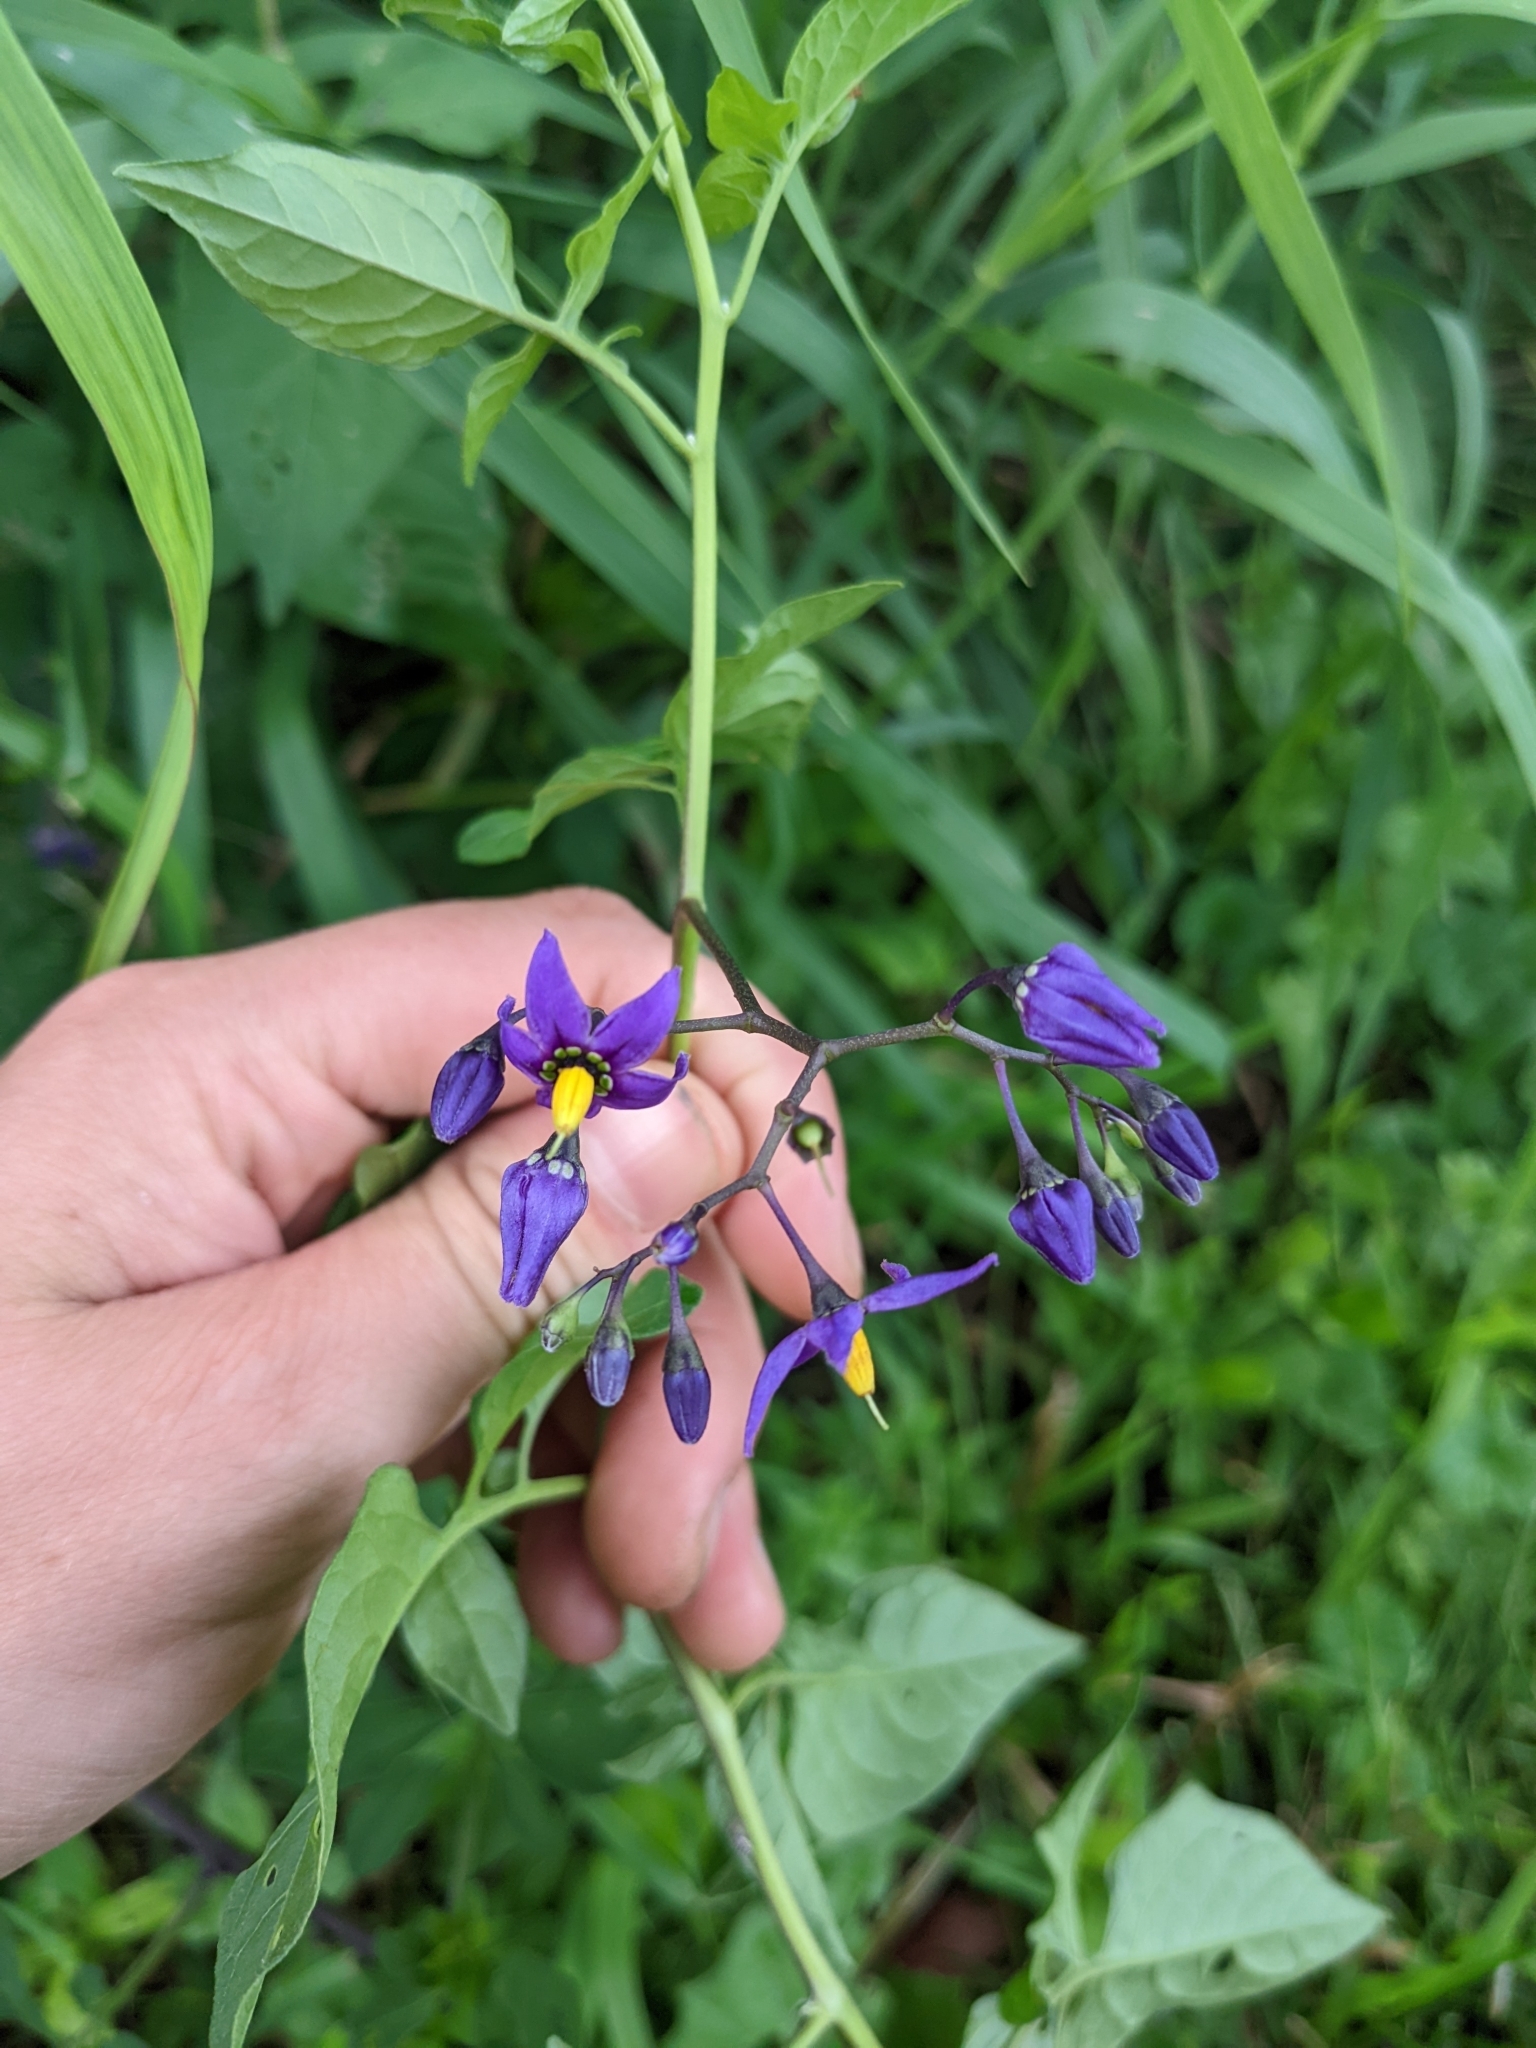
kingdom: Plantae
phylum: Tracheophyta
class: Magnoliopsida
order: Solanales
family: Solanaceae
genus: Solanum
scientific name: Solanum dulcamara
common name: Climbing nightshade
